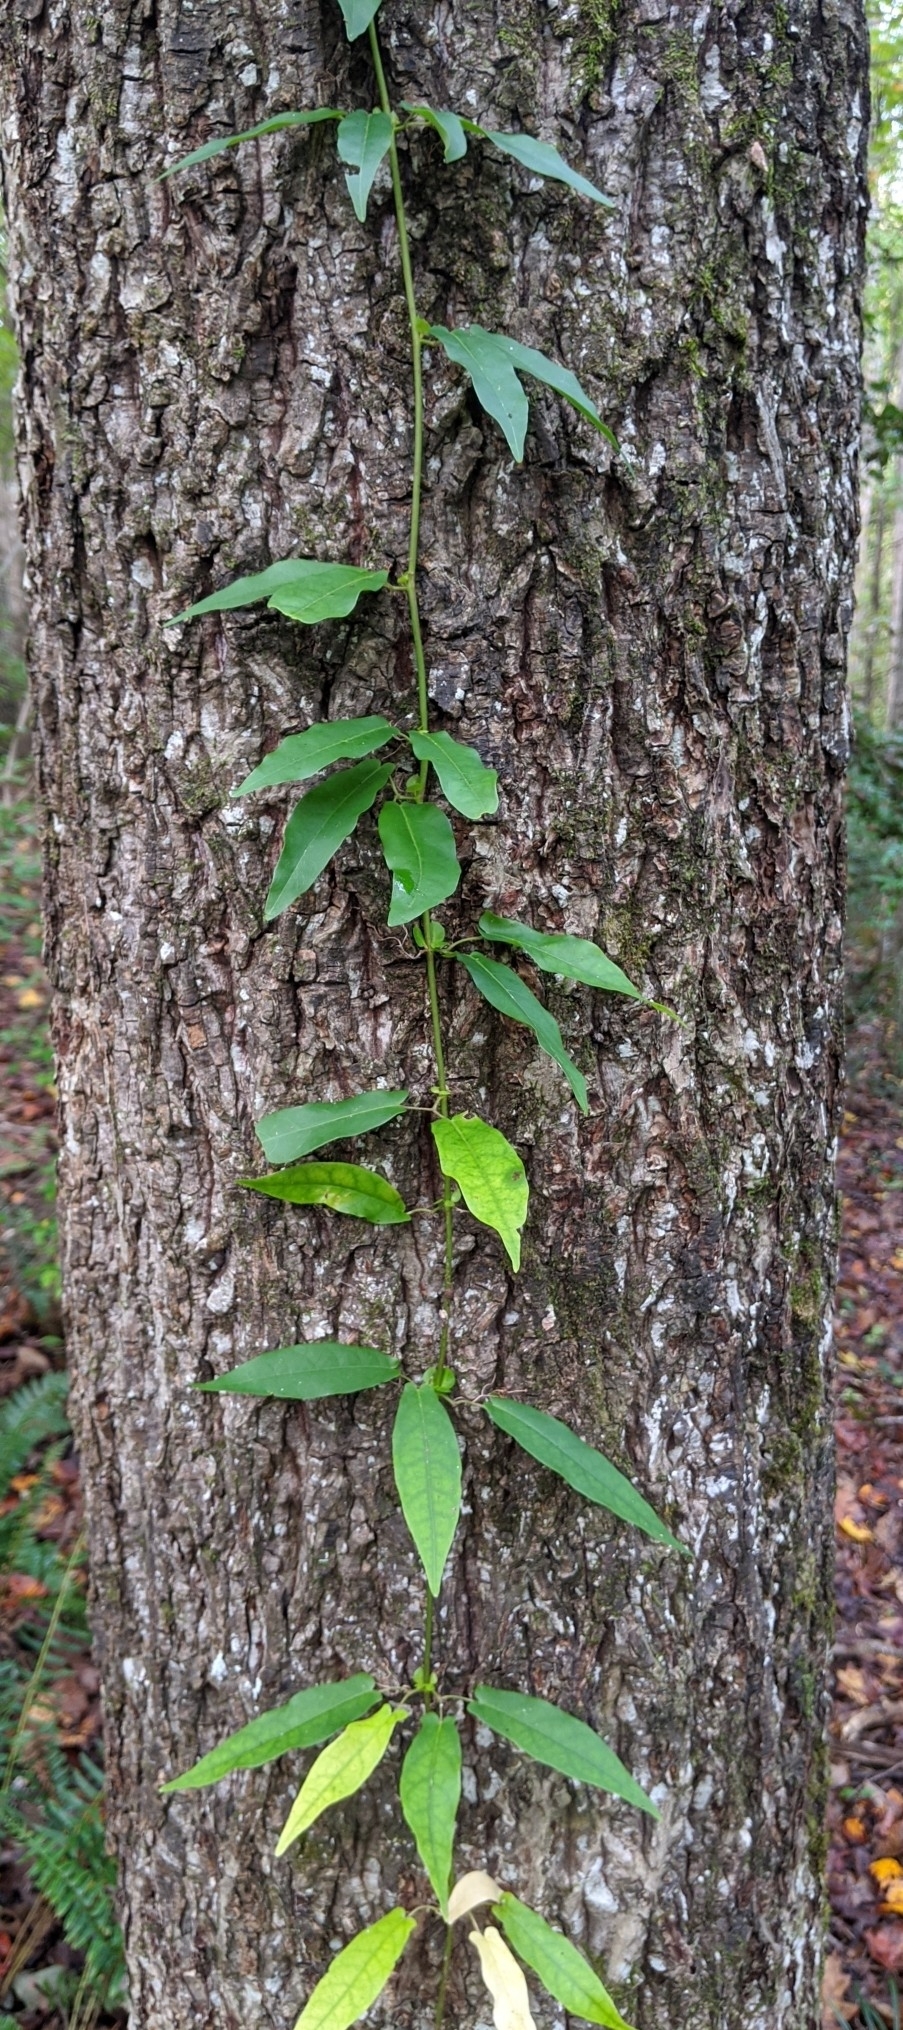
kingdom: Plantae
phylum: Tracheophyta
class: Magnoliopsida
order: Lamiales
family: Bignoniaceae
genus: Bignonia
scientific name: Bignonia capreolata
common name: Crossvine
